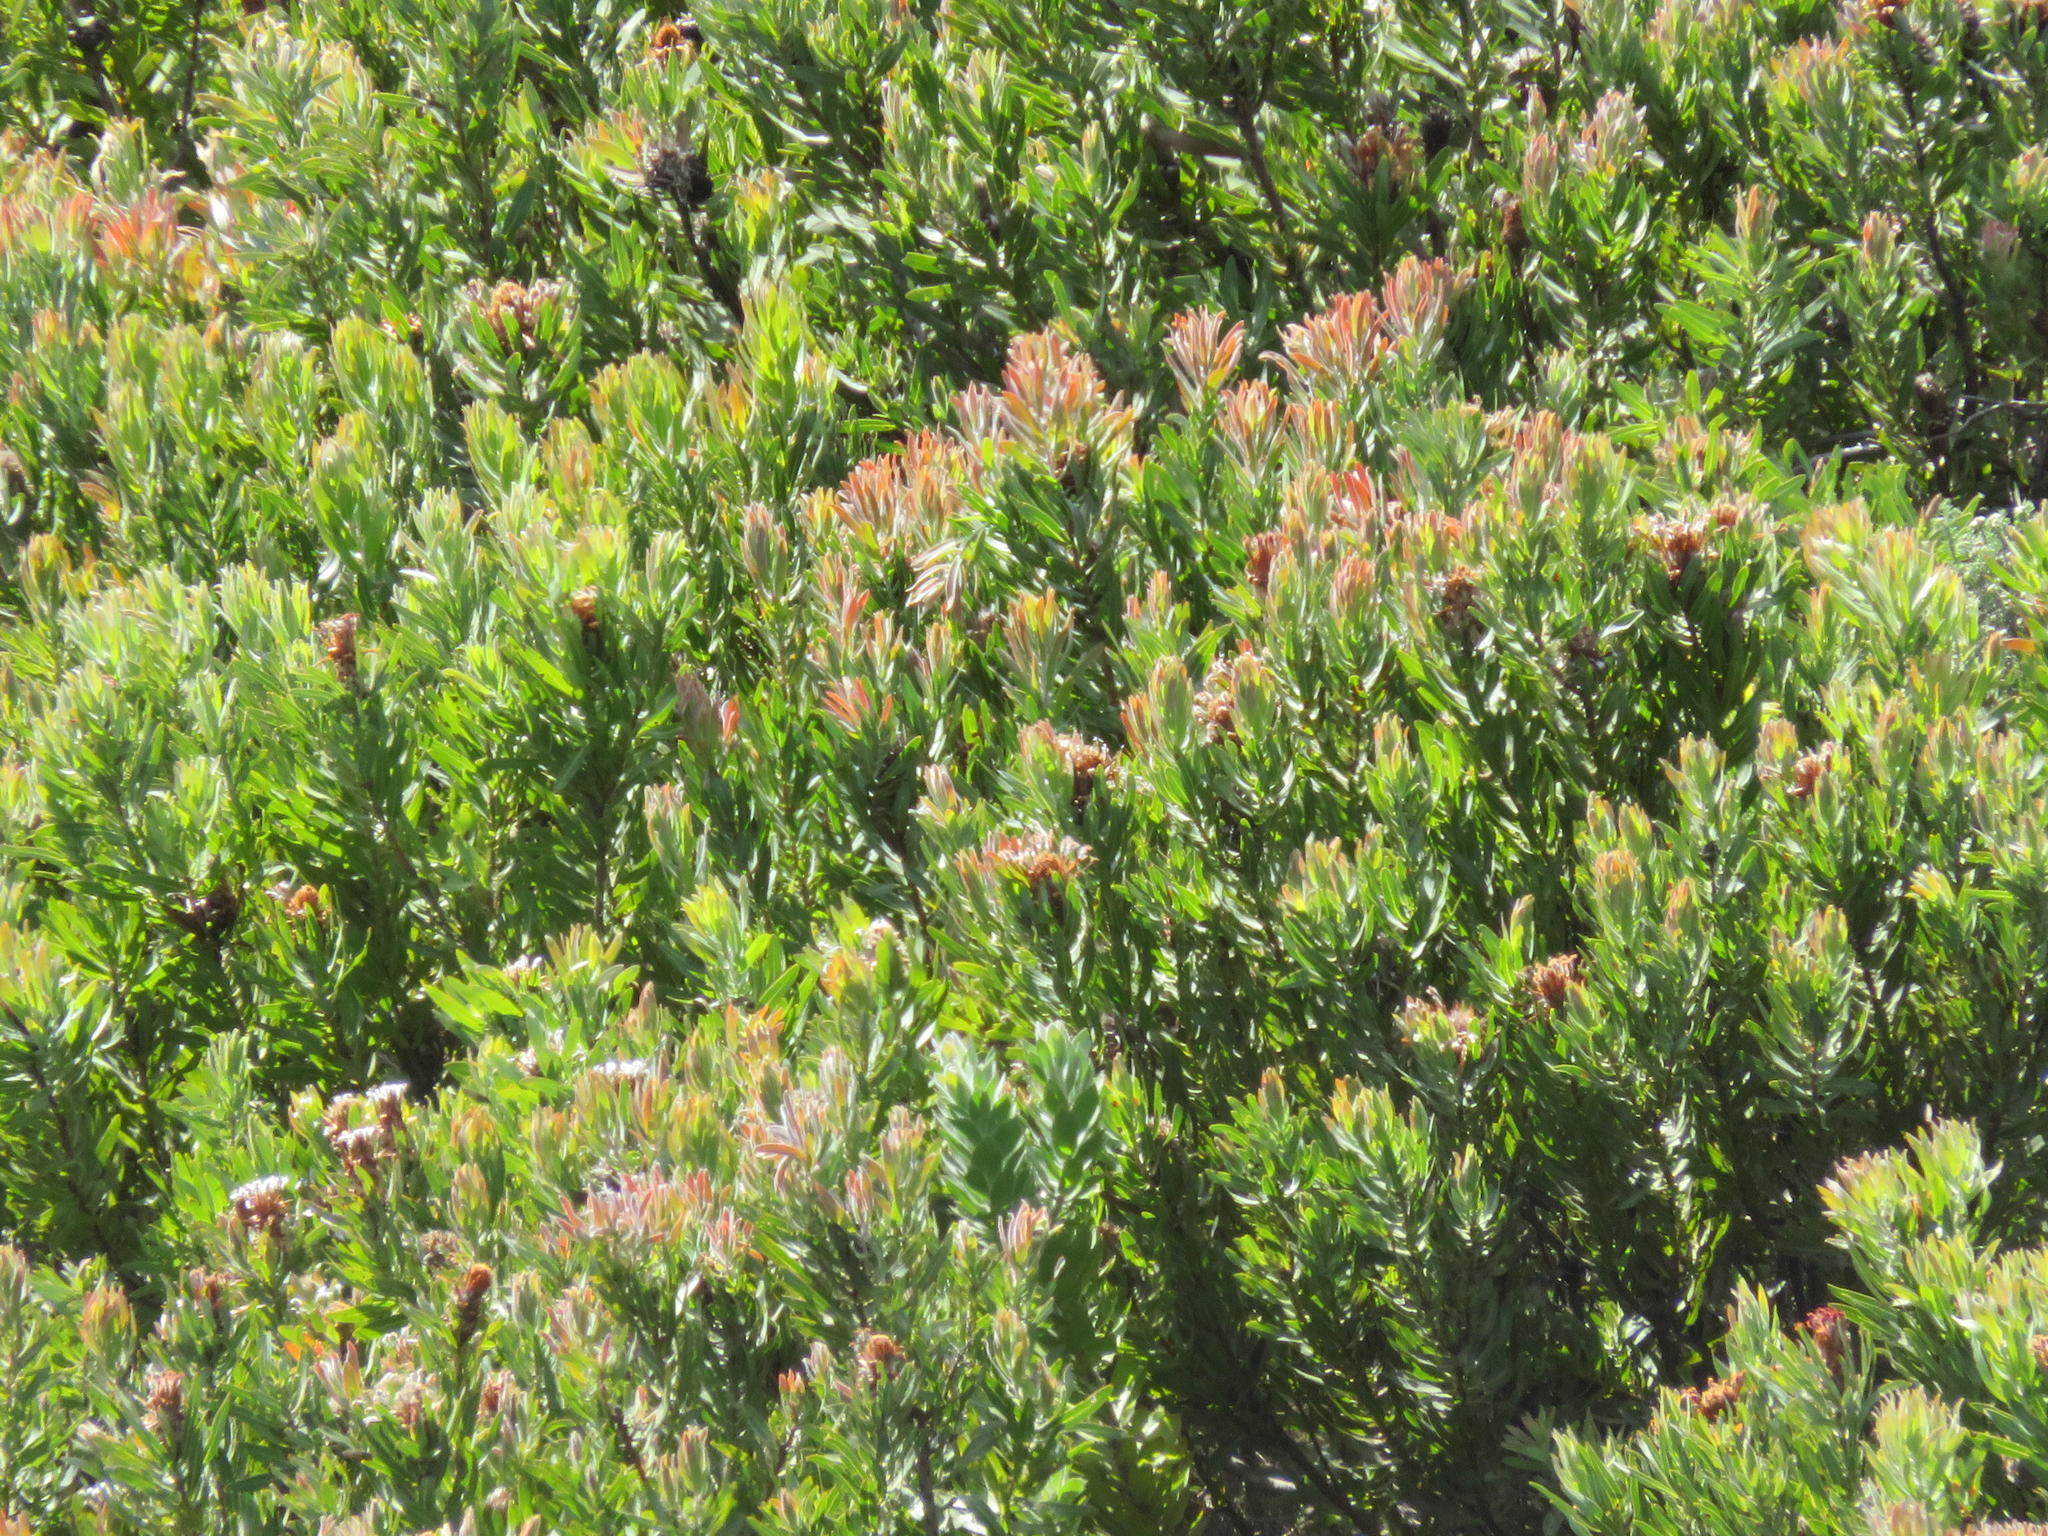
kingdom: Plantae
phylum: Tracheophyta
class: Magnoliopsida
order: Proteales
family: Proteaceae
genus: Protea
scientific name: Protea neriifolia
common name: Blue sugarbush
